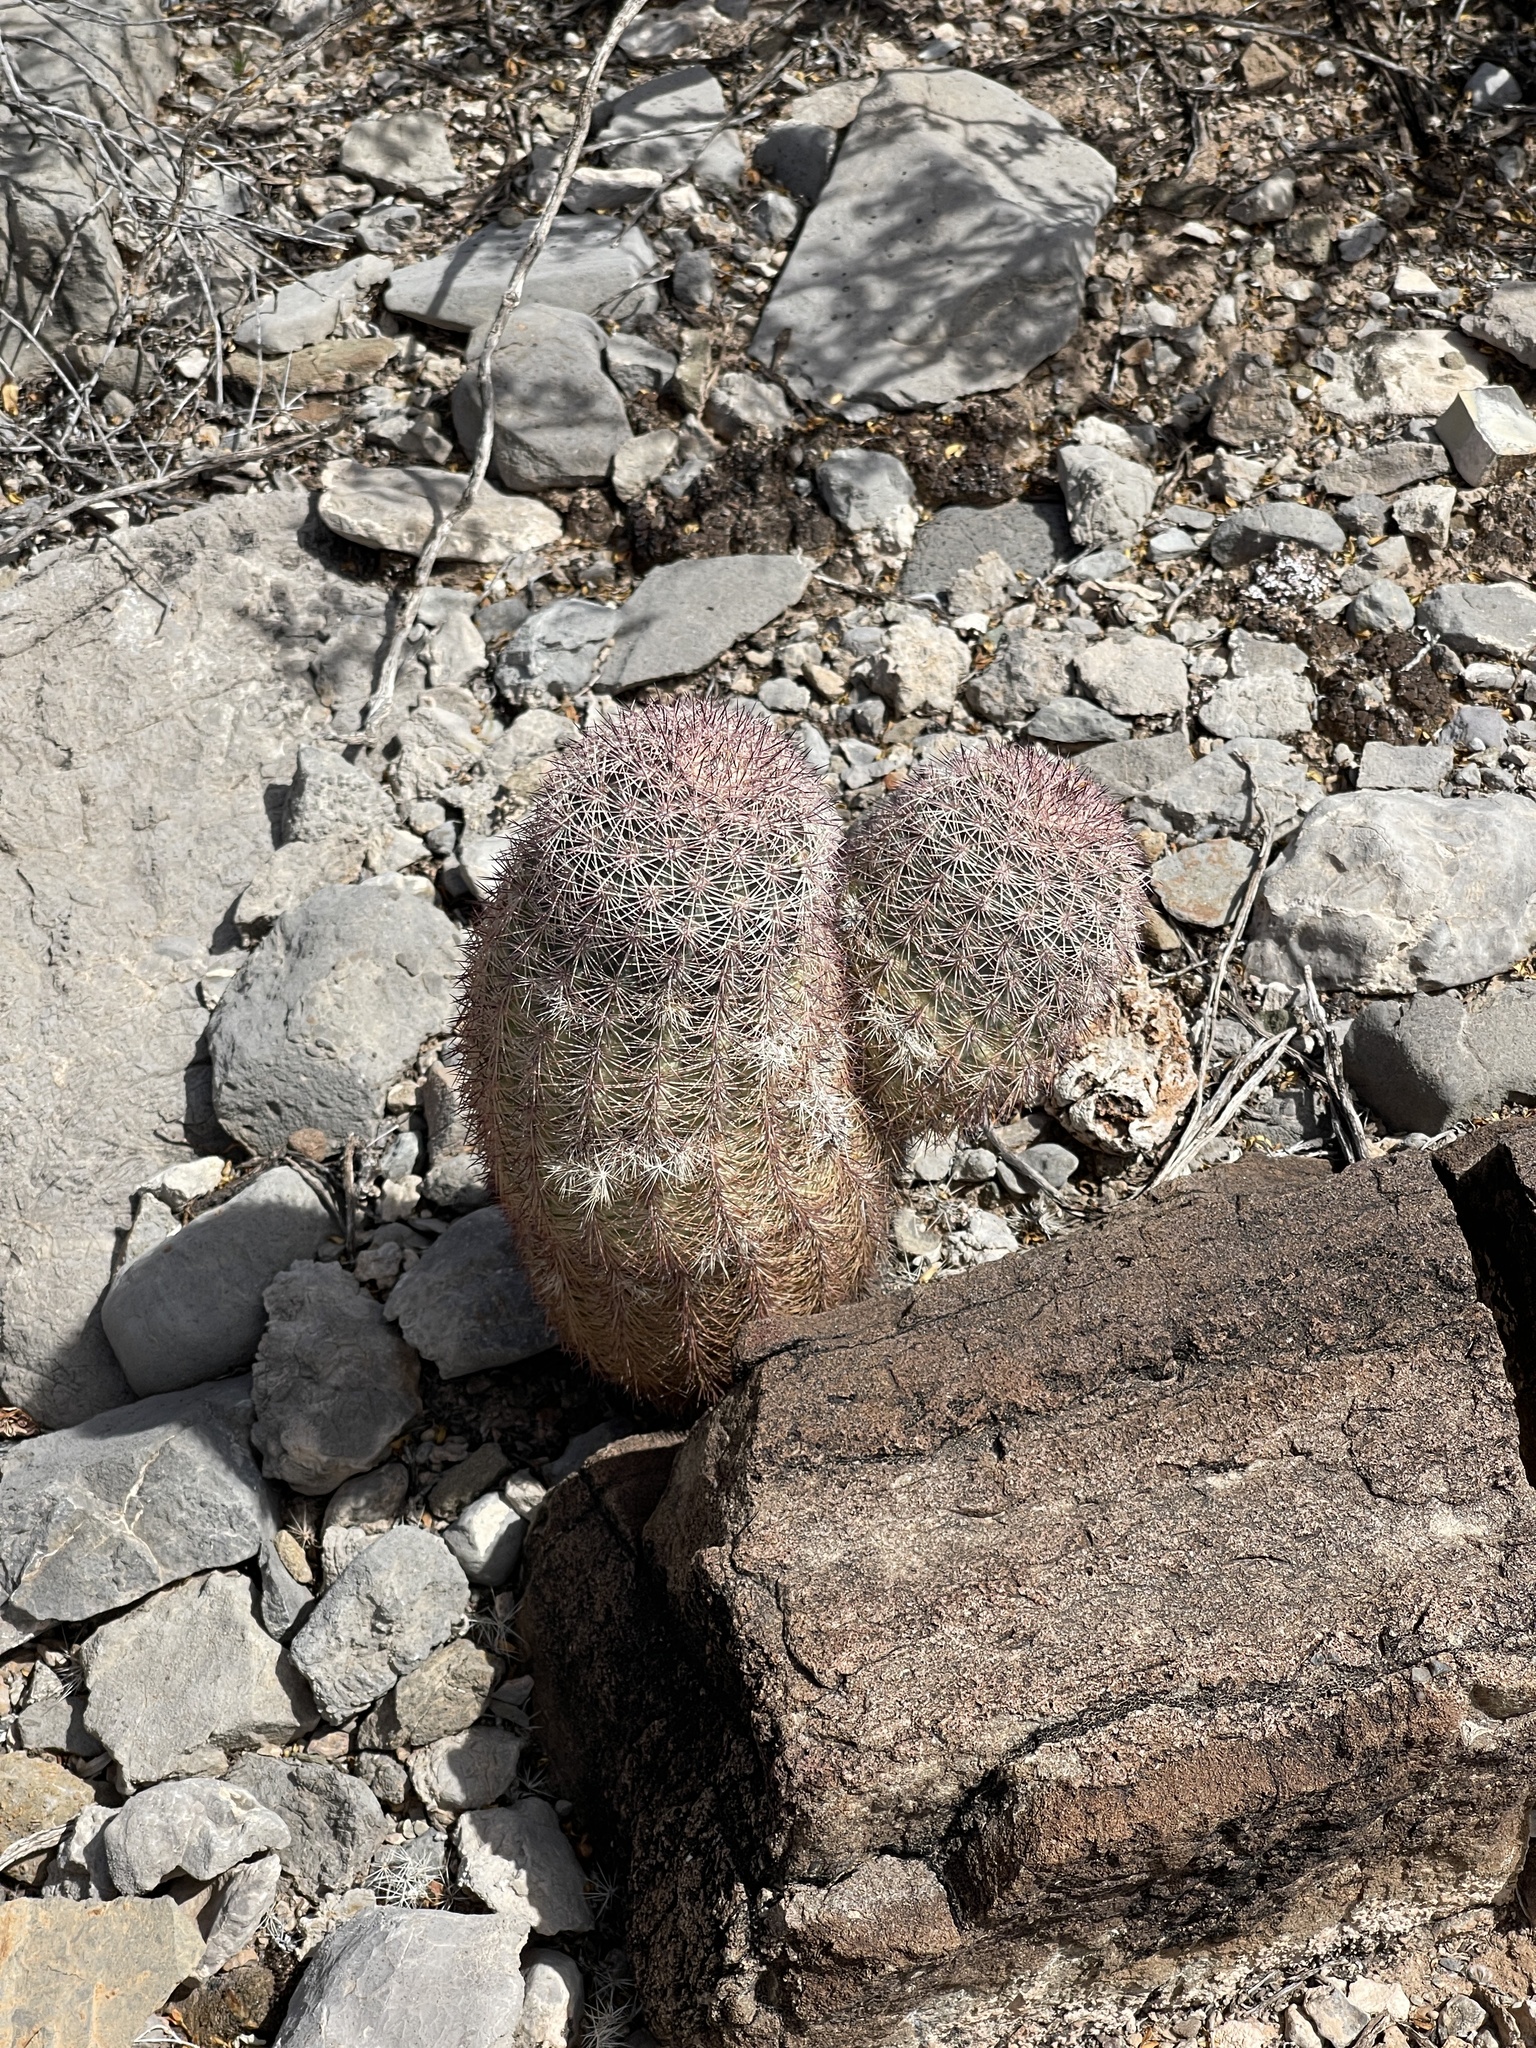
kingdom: Plantae
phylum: Tracheophyta
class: Magnoliopsida
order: Caryophyllales
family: Cactaceae
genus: Echinocereus
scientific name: Echinocereus dasyacanthus
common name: Spiny hedgehog cactus
